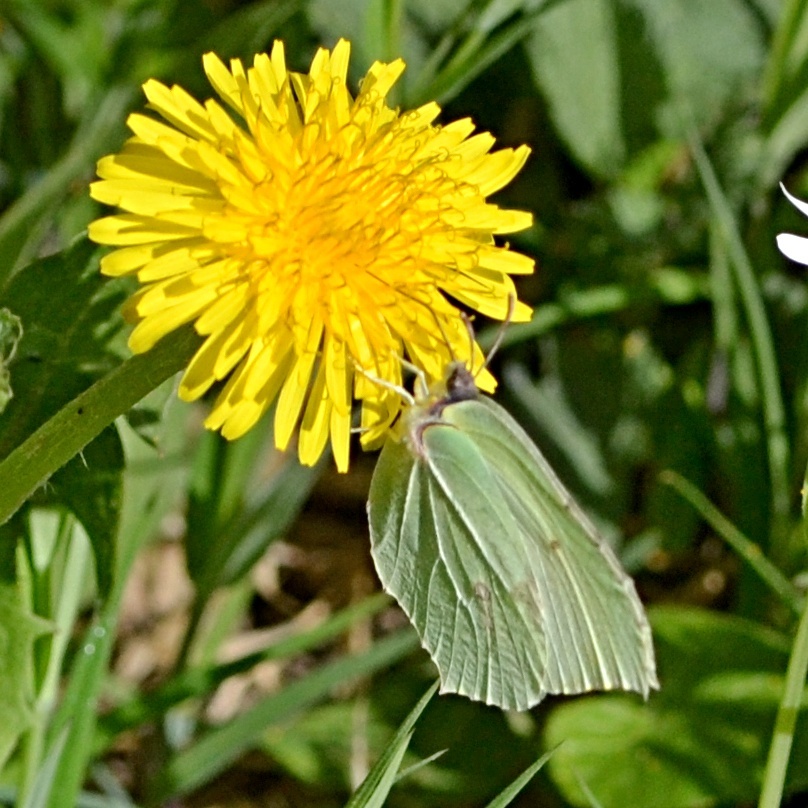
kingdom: Animalia
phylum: Arthropoda
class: Insecta
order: Lepidoptera
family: Pieridae
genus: Gonepteryx
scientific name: Gonepteryx rhamni
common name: Brimstone
